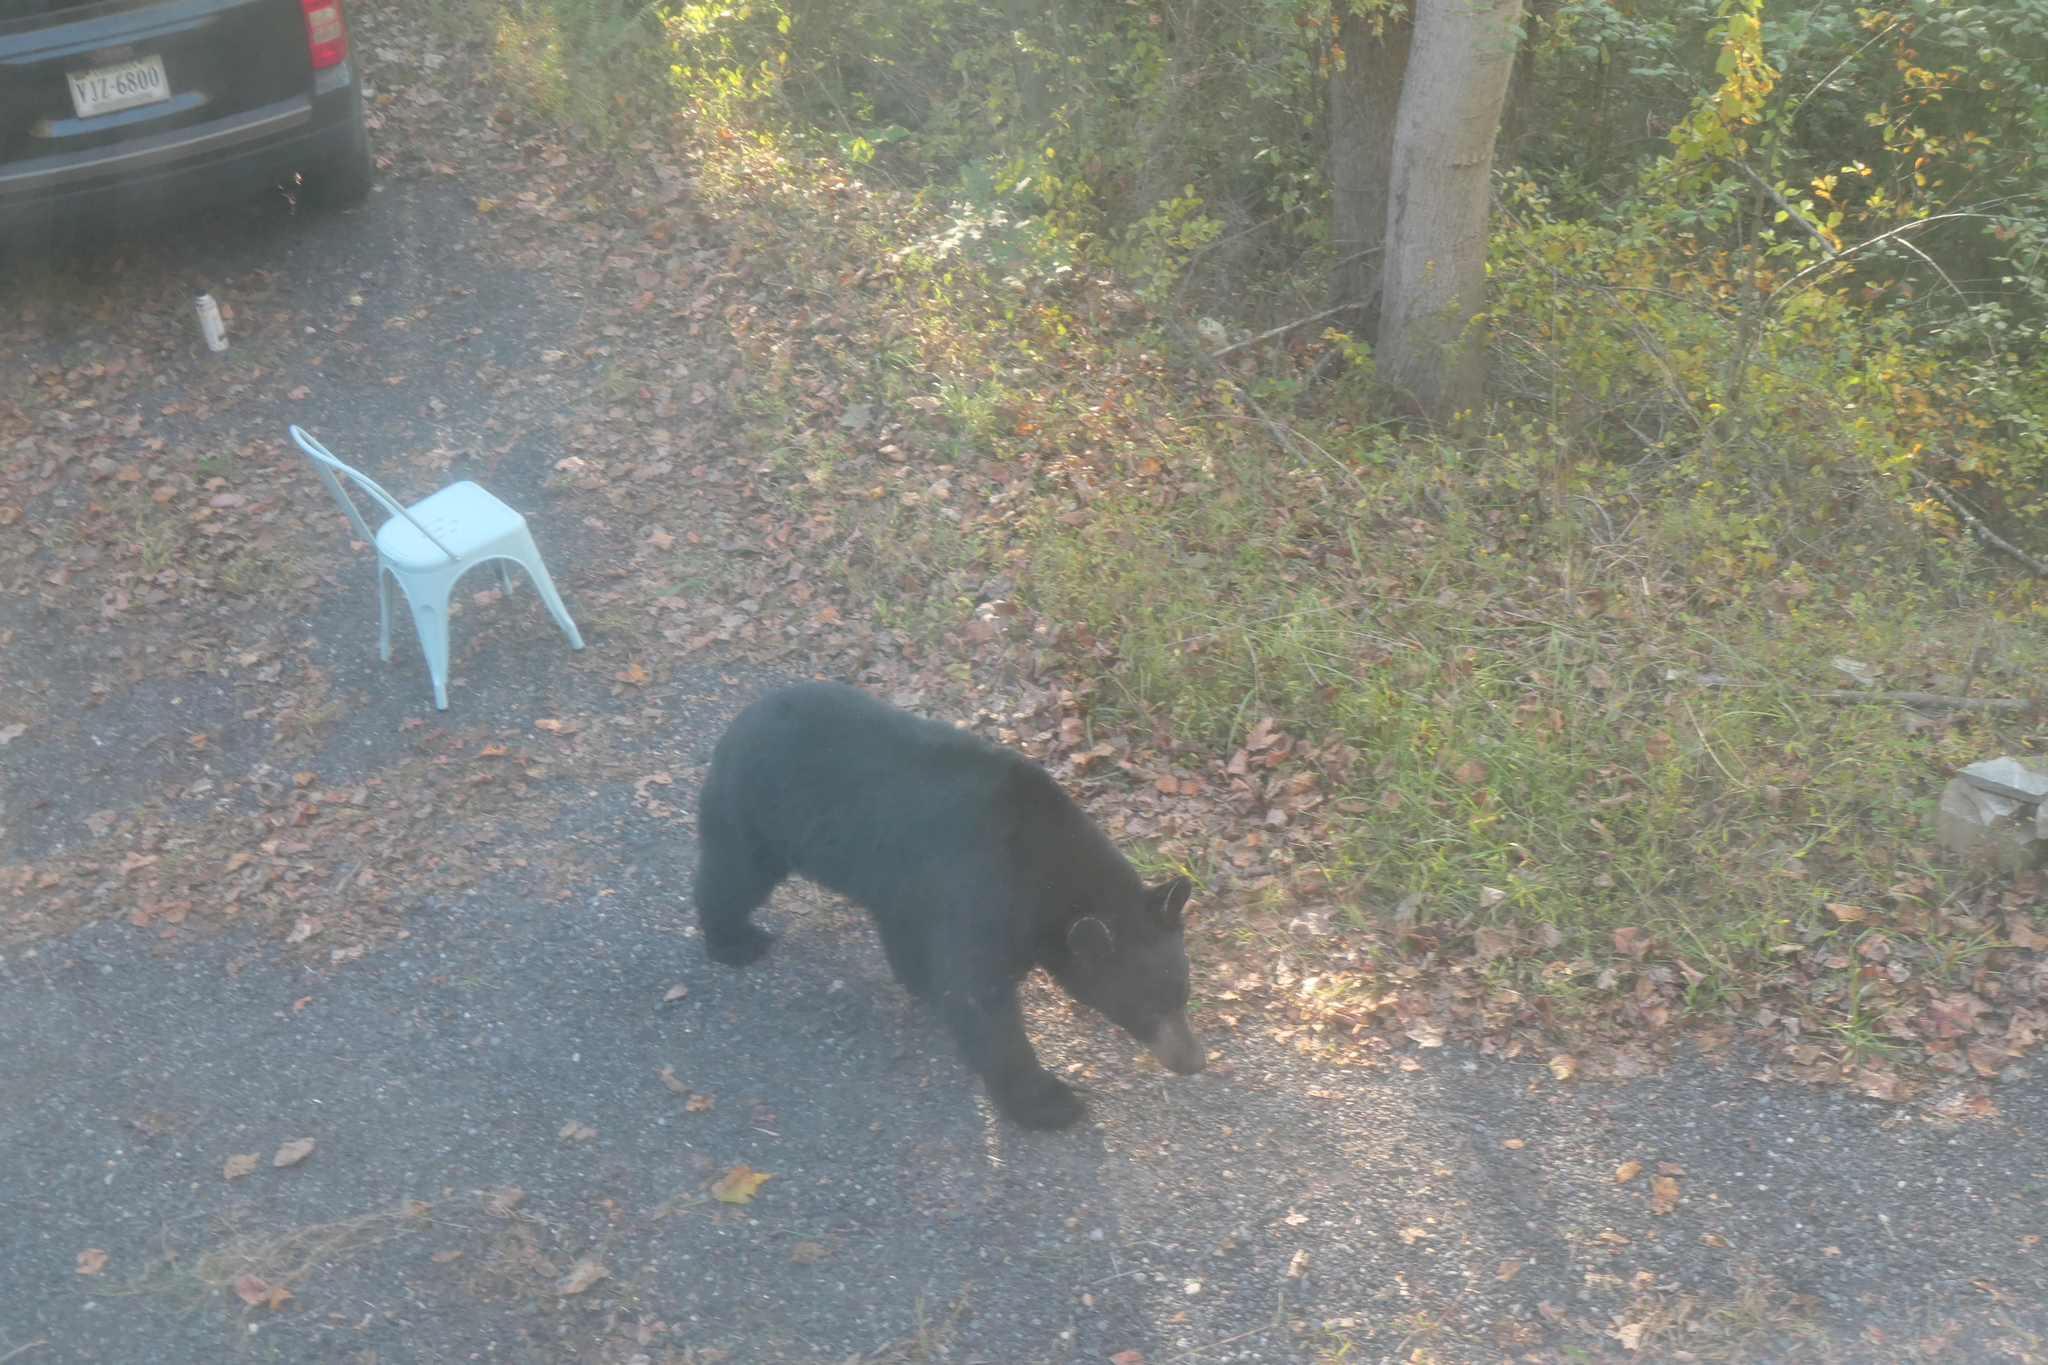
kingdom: Animalia
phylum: Chordata
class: Mammalia
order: Carnivora
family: Ursidae
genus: Ursus
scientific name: Ursus americanus
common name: American black bear
